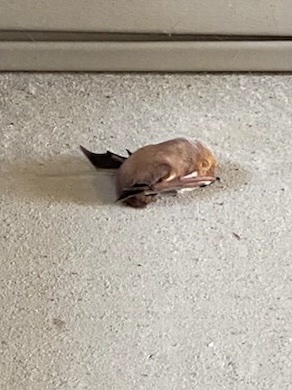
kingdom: Animalia
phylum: Chordata
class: Mammalia
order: Chiroptera
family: Vespertilionidae
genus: Lasiurus
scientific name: Lasiurus borealis
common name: Eastern red bat
